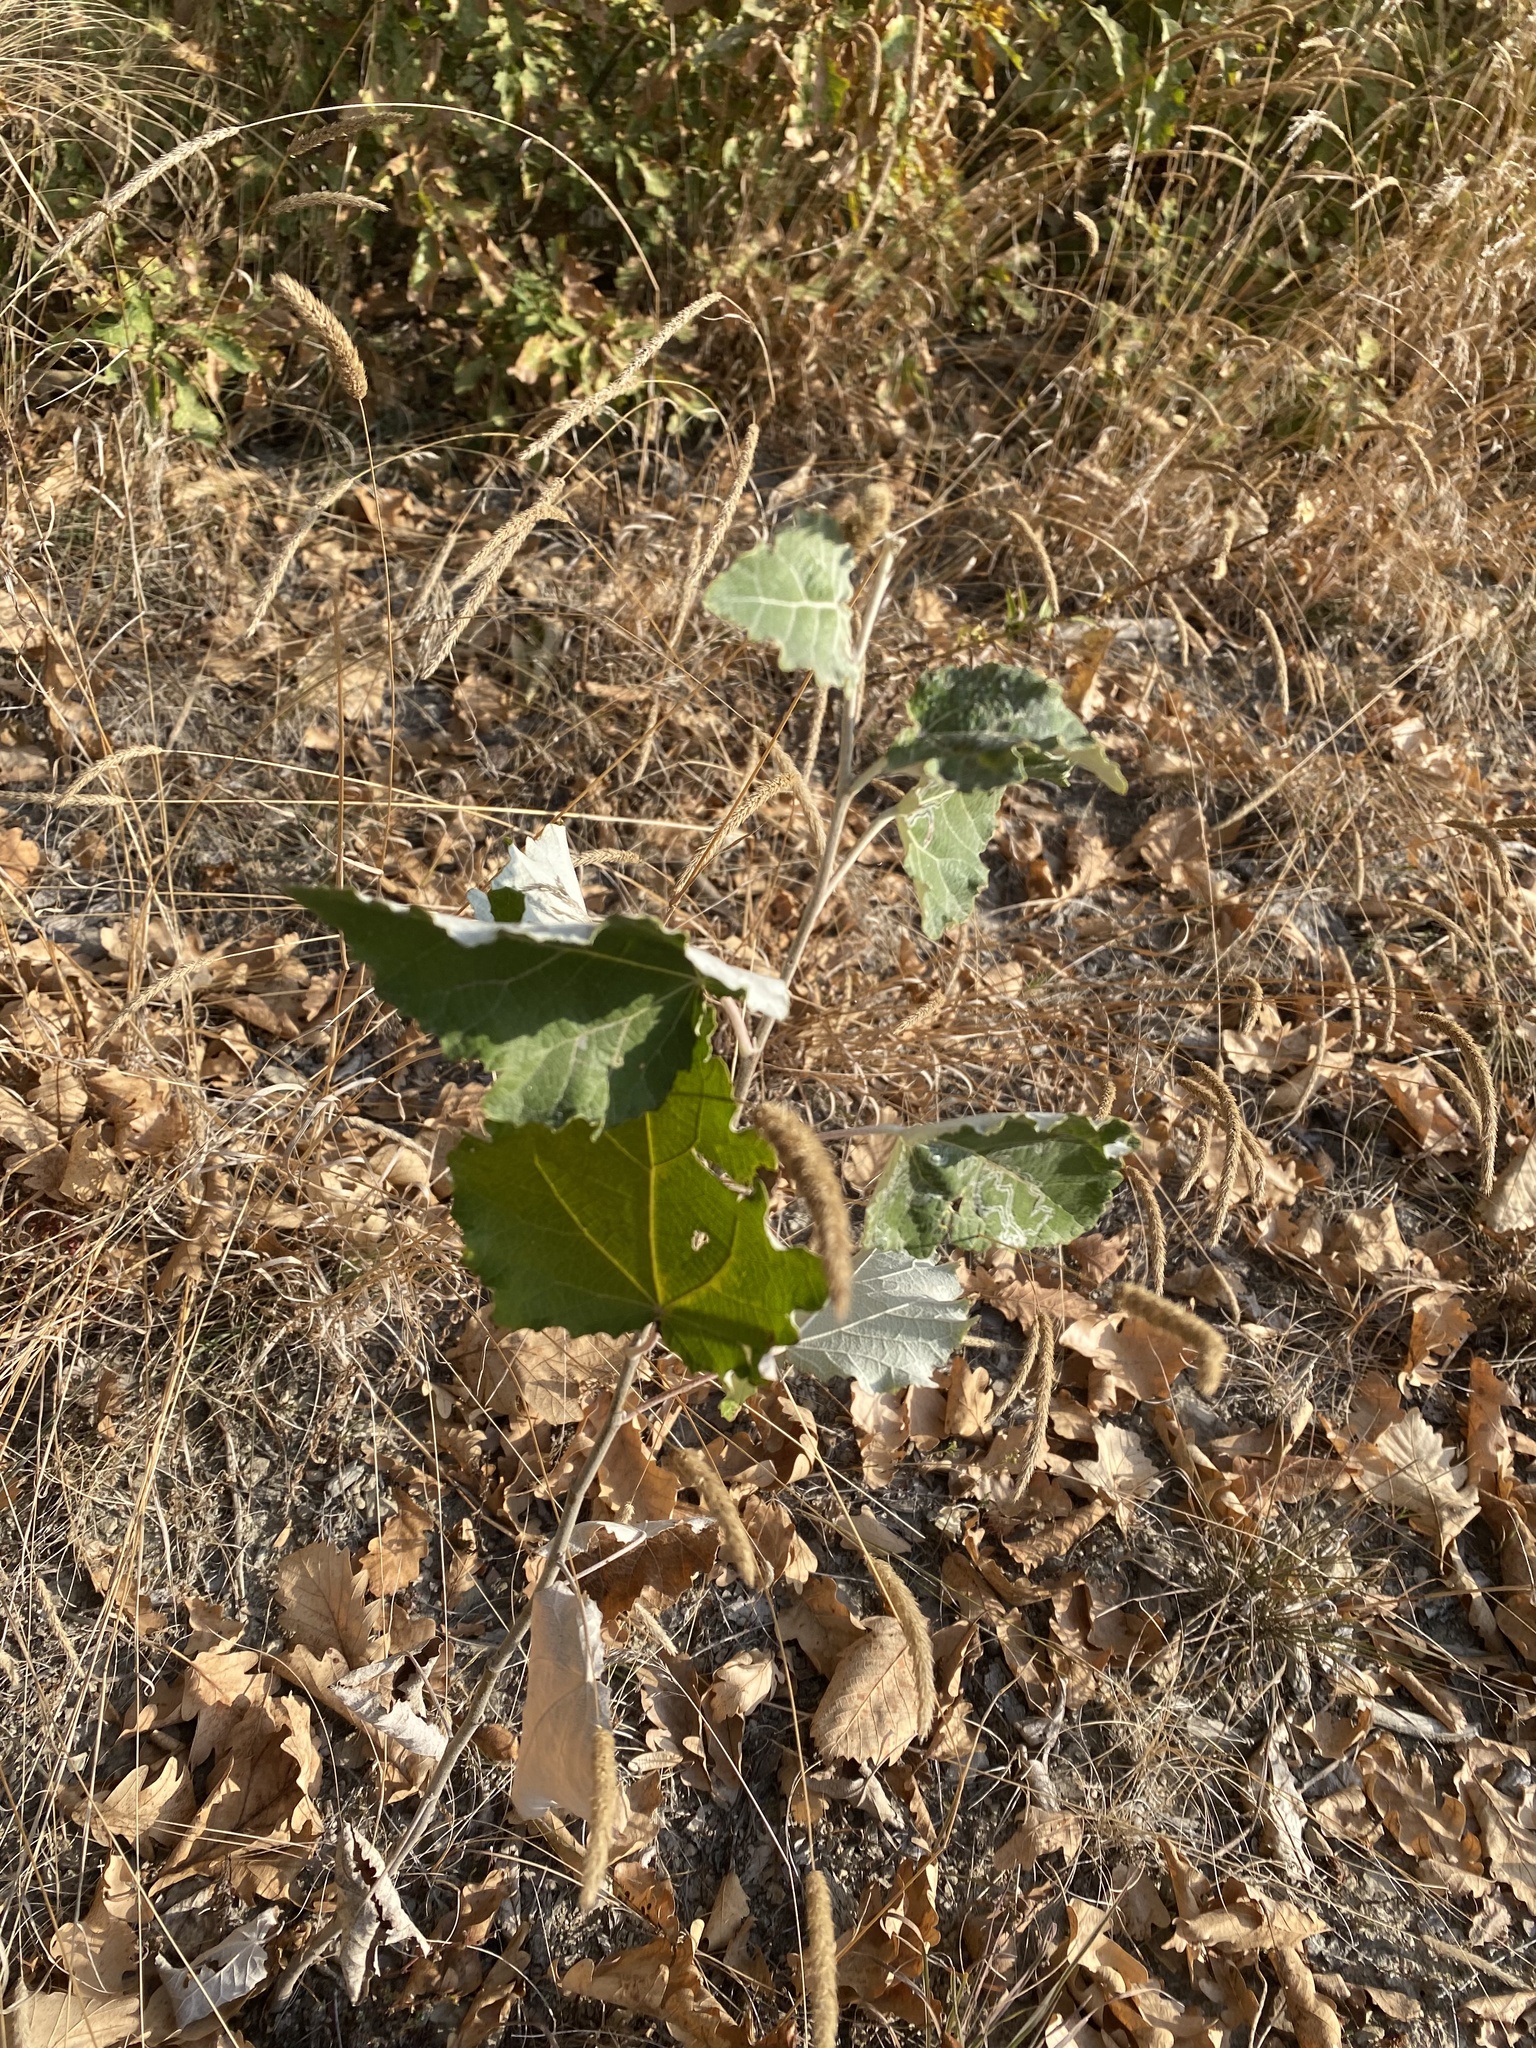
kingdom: Plantae
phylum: Tracheophyta
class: Magnoliopsida
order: Malpighiales
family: Salicaceae
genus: Populus
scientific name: Populus alba
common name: White poplar
